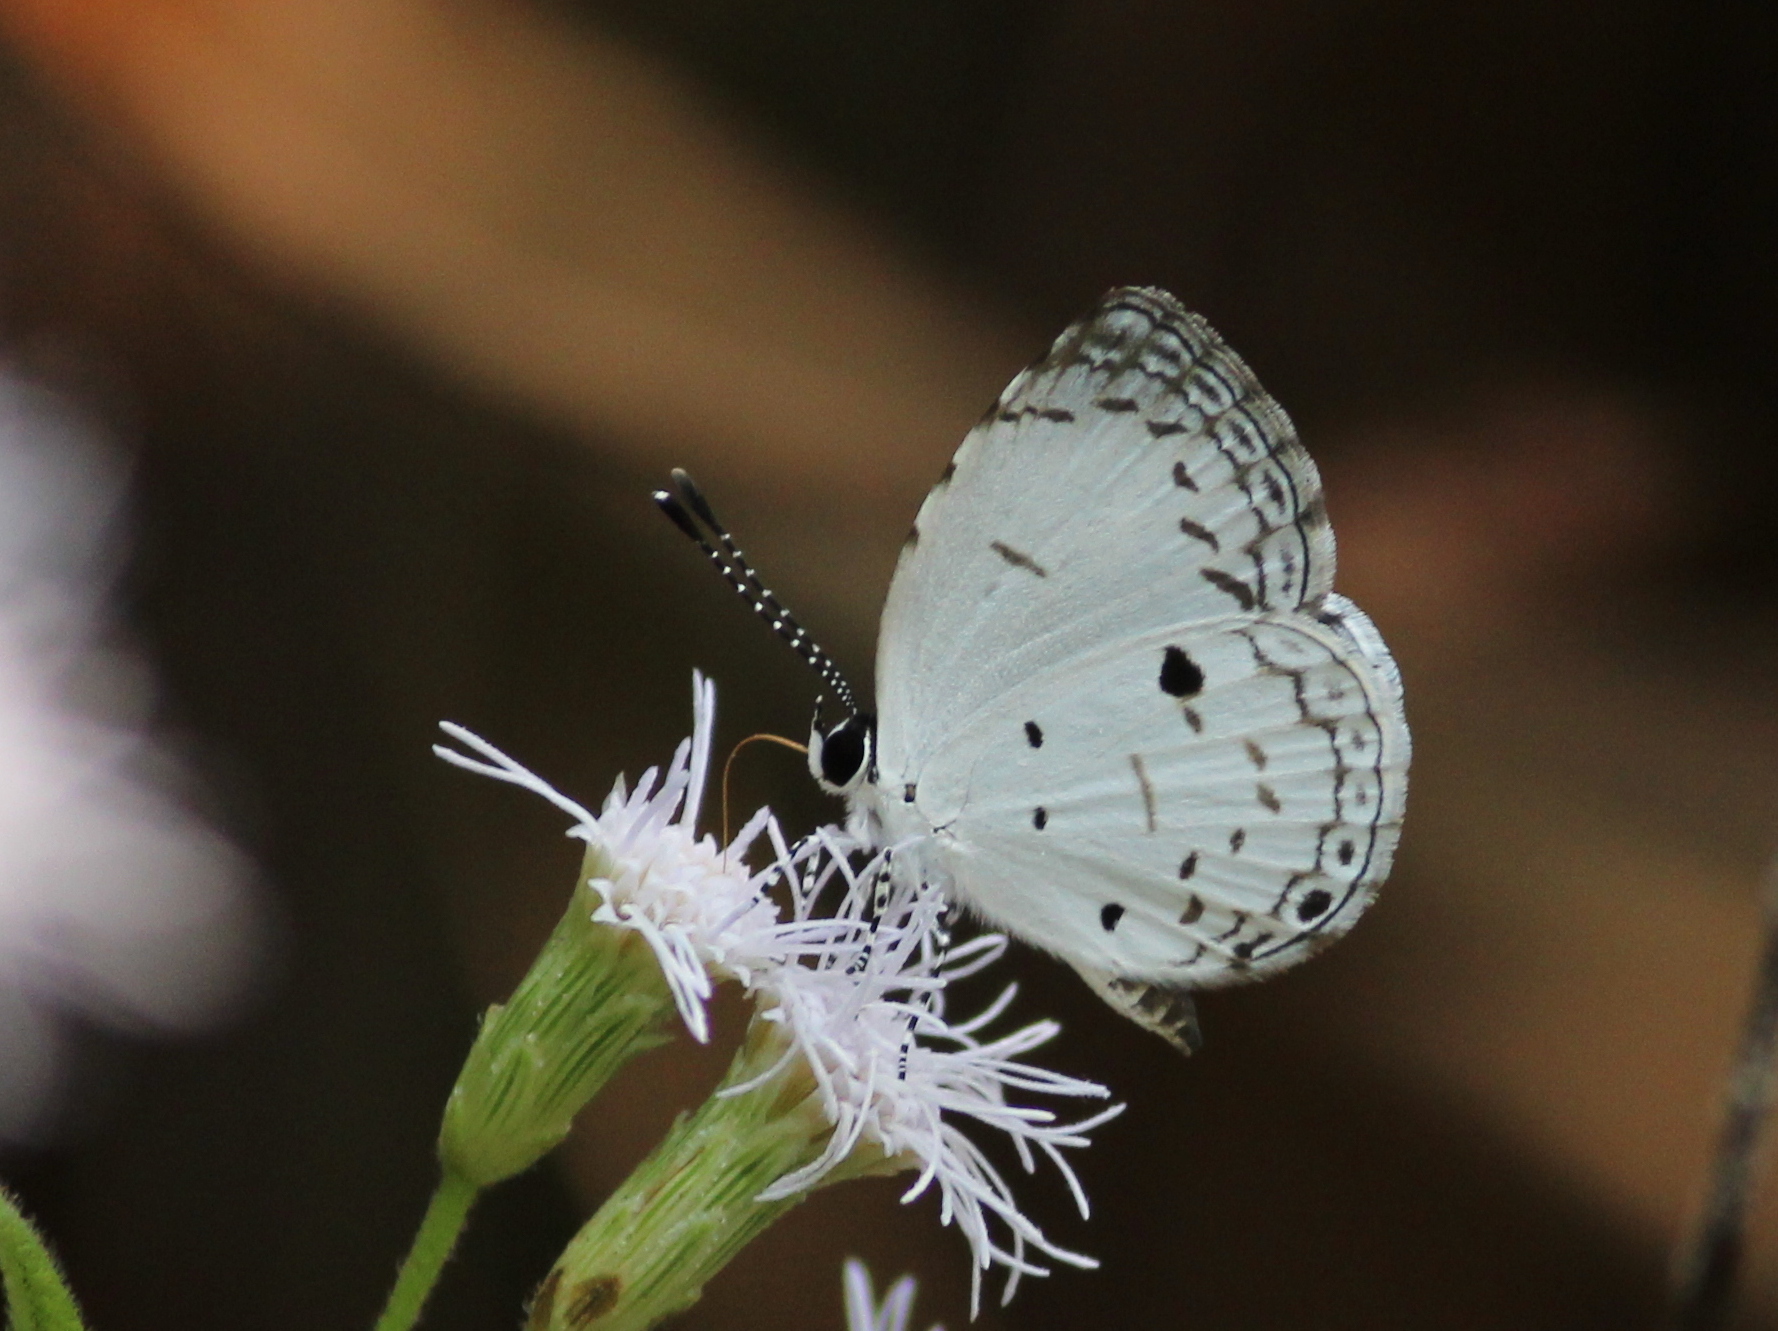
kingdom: Animalia
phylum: Arthropoda
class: Insecta
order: Lepidoptera
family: Lycaenidae
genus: Neopithecops
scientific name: Neopithecops zalmora
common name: Quaker
